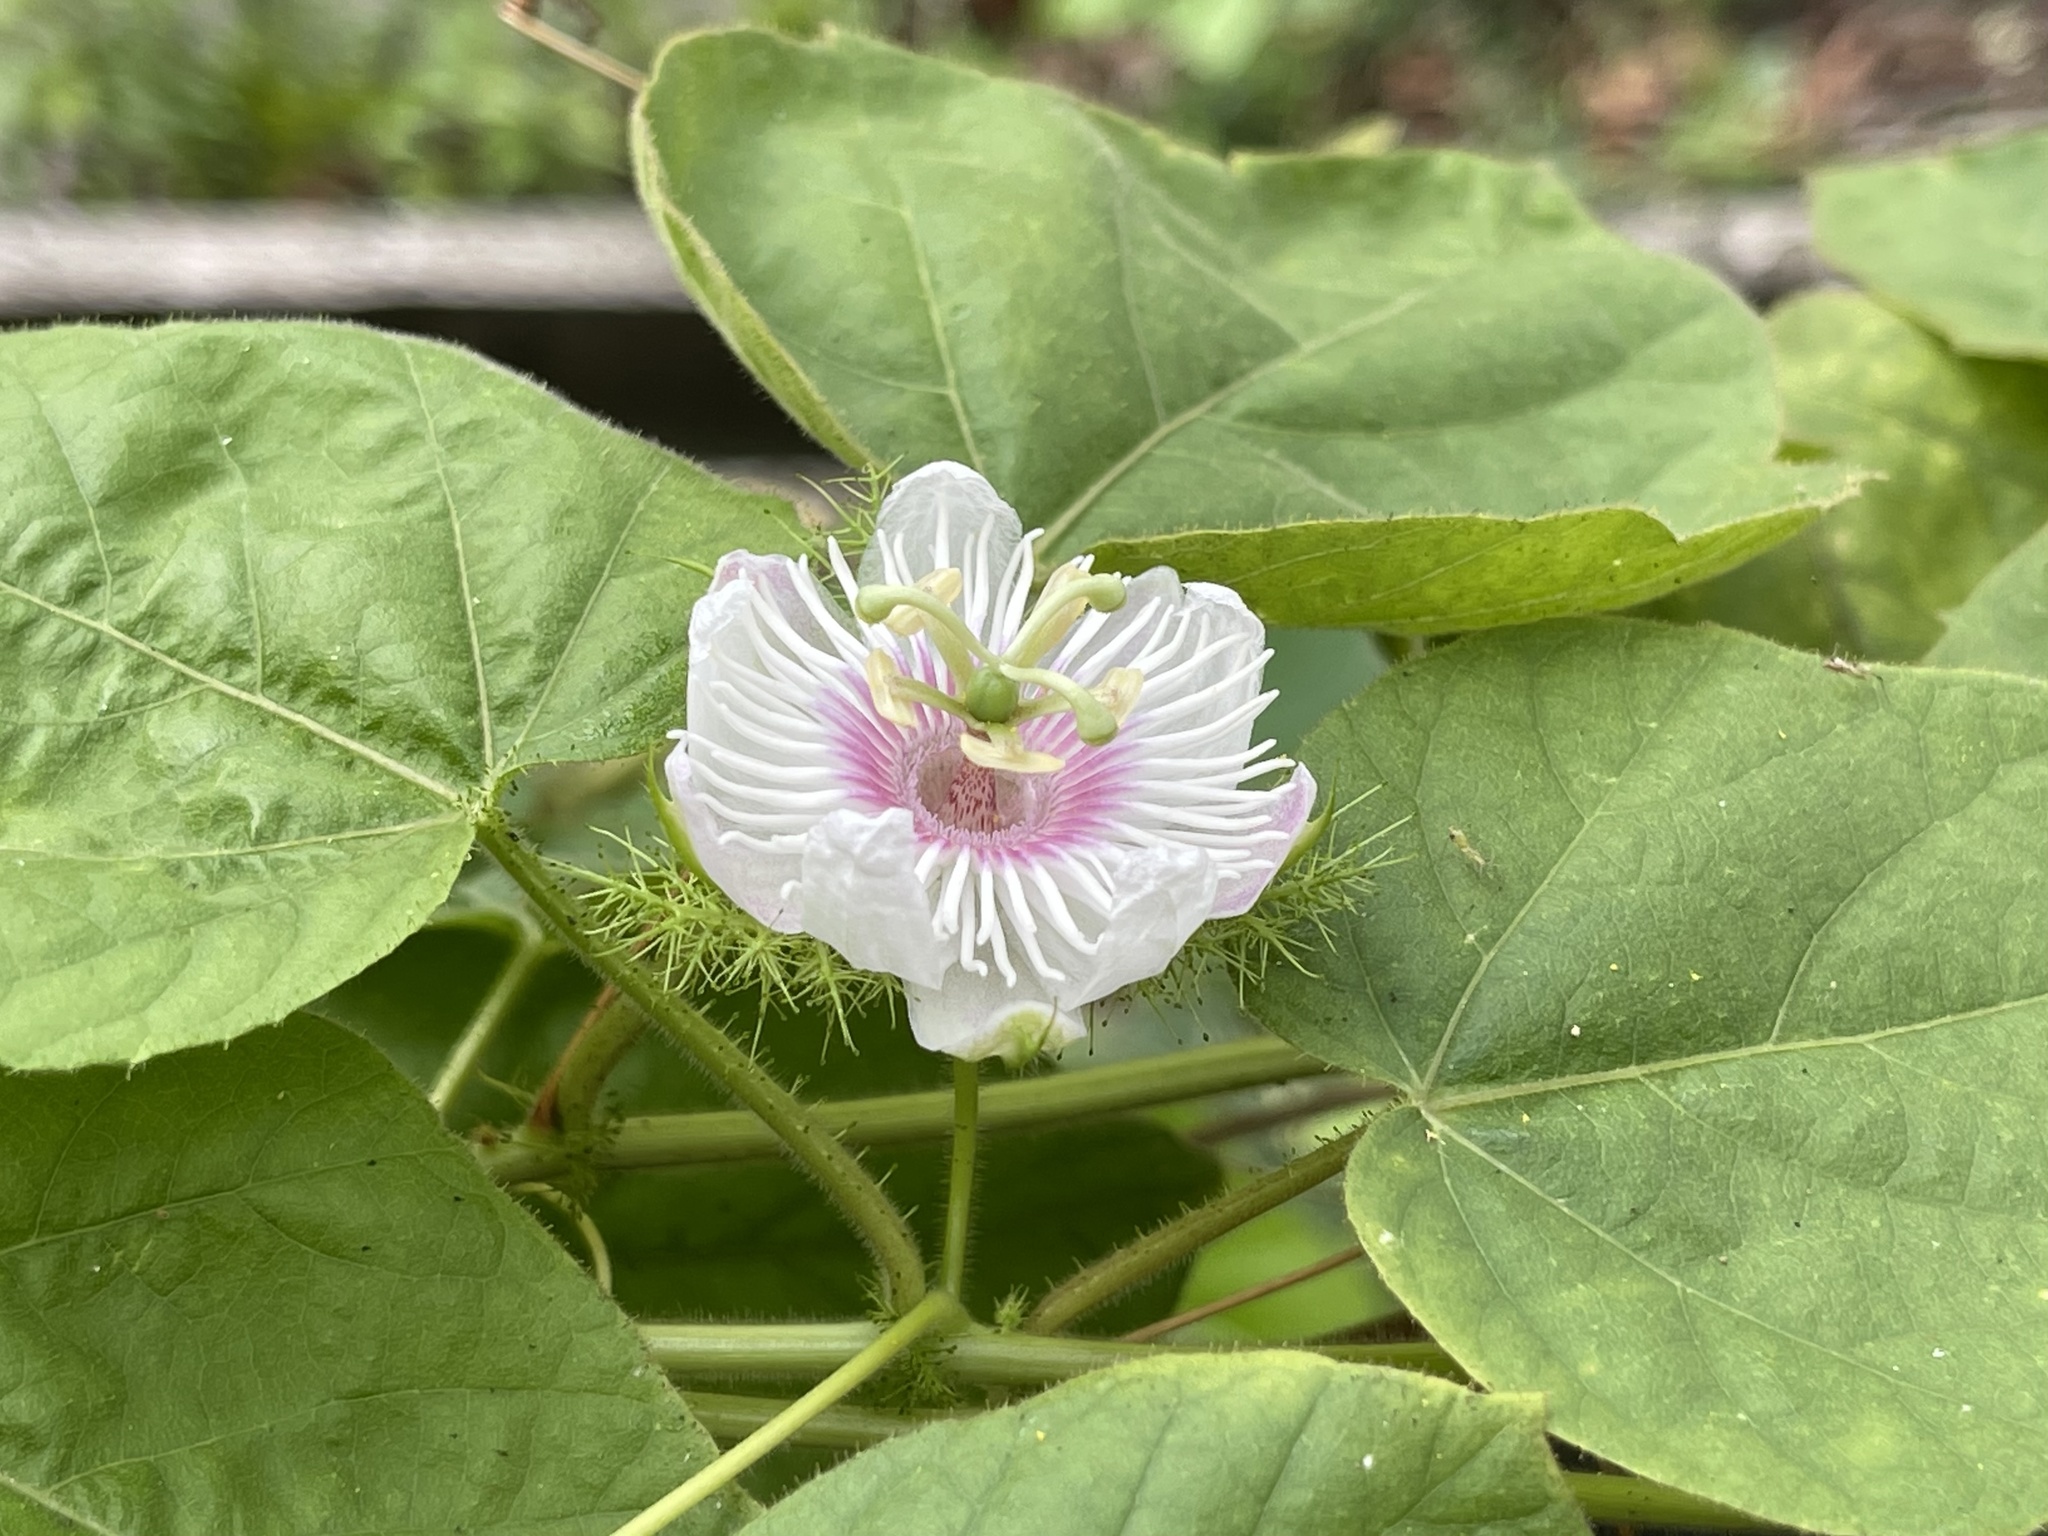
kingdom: Plantae
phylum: Tracheophyta
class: Magnoliopsida
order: Malpighiales
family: Passifloraceae
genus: Passiflora
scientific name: Passiflora vesicaria
